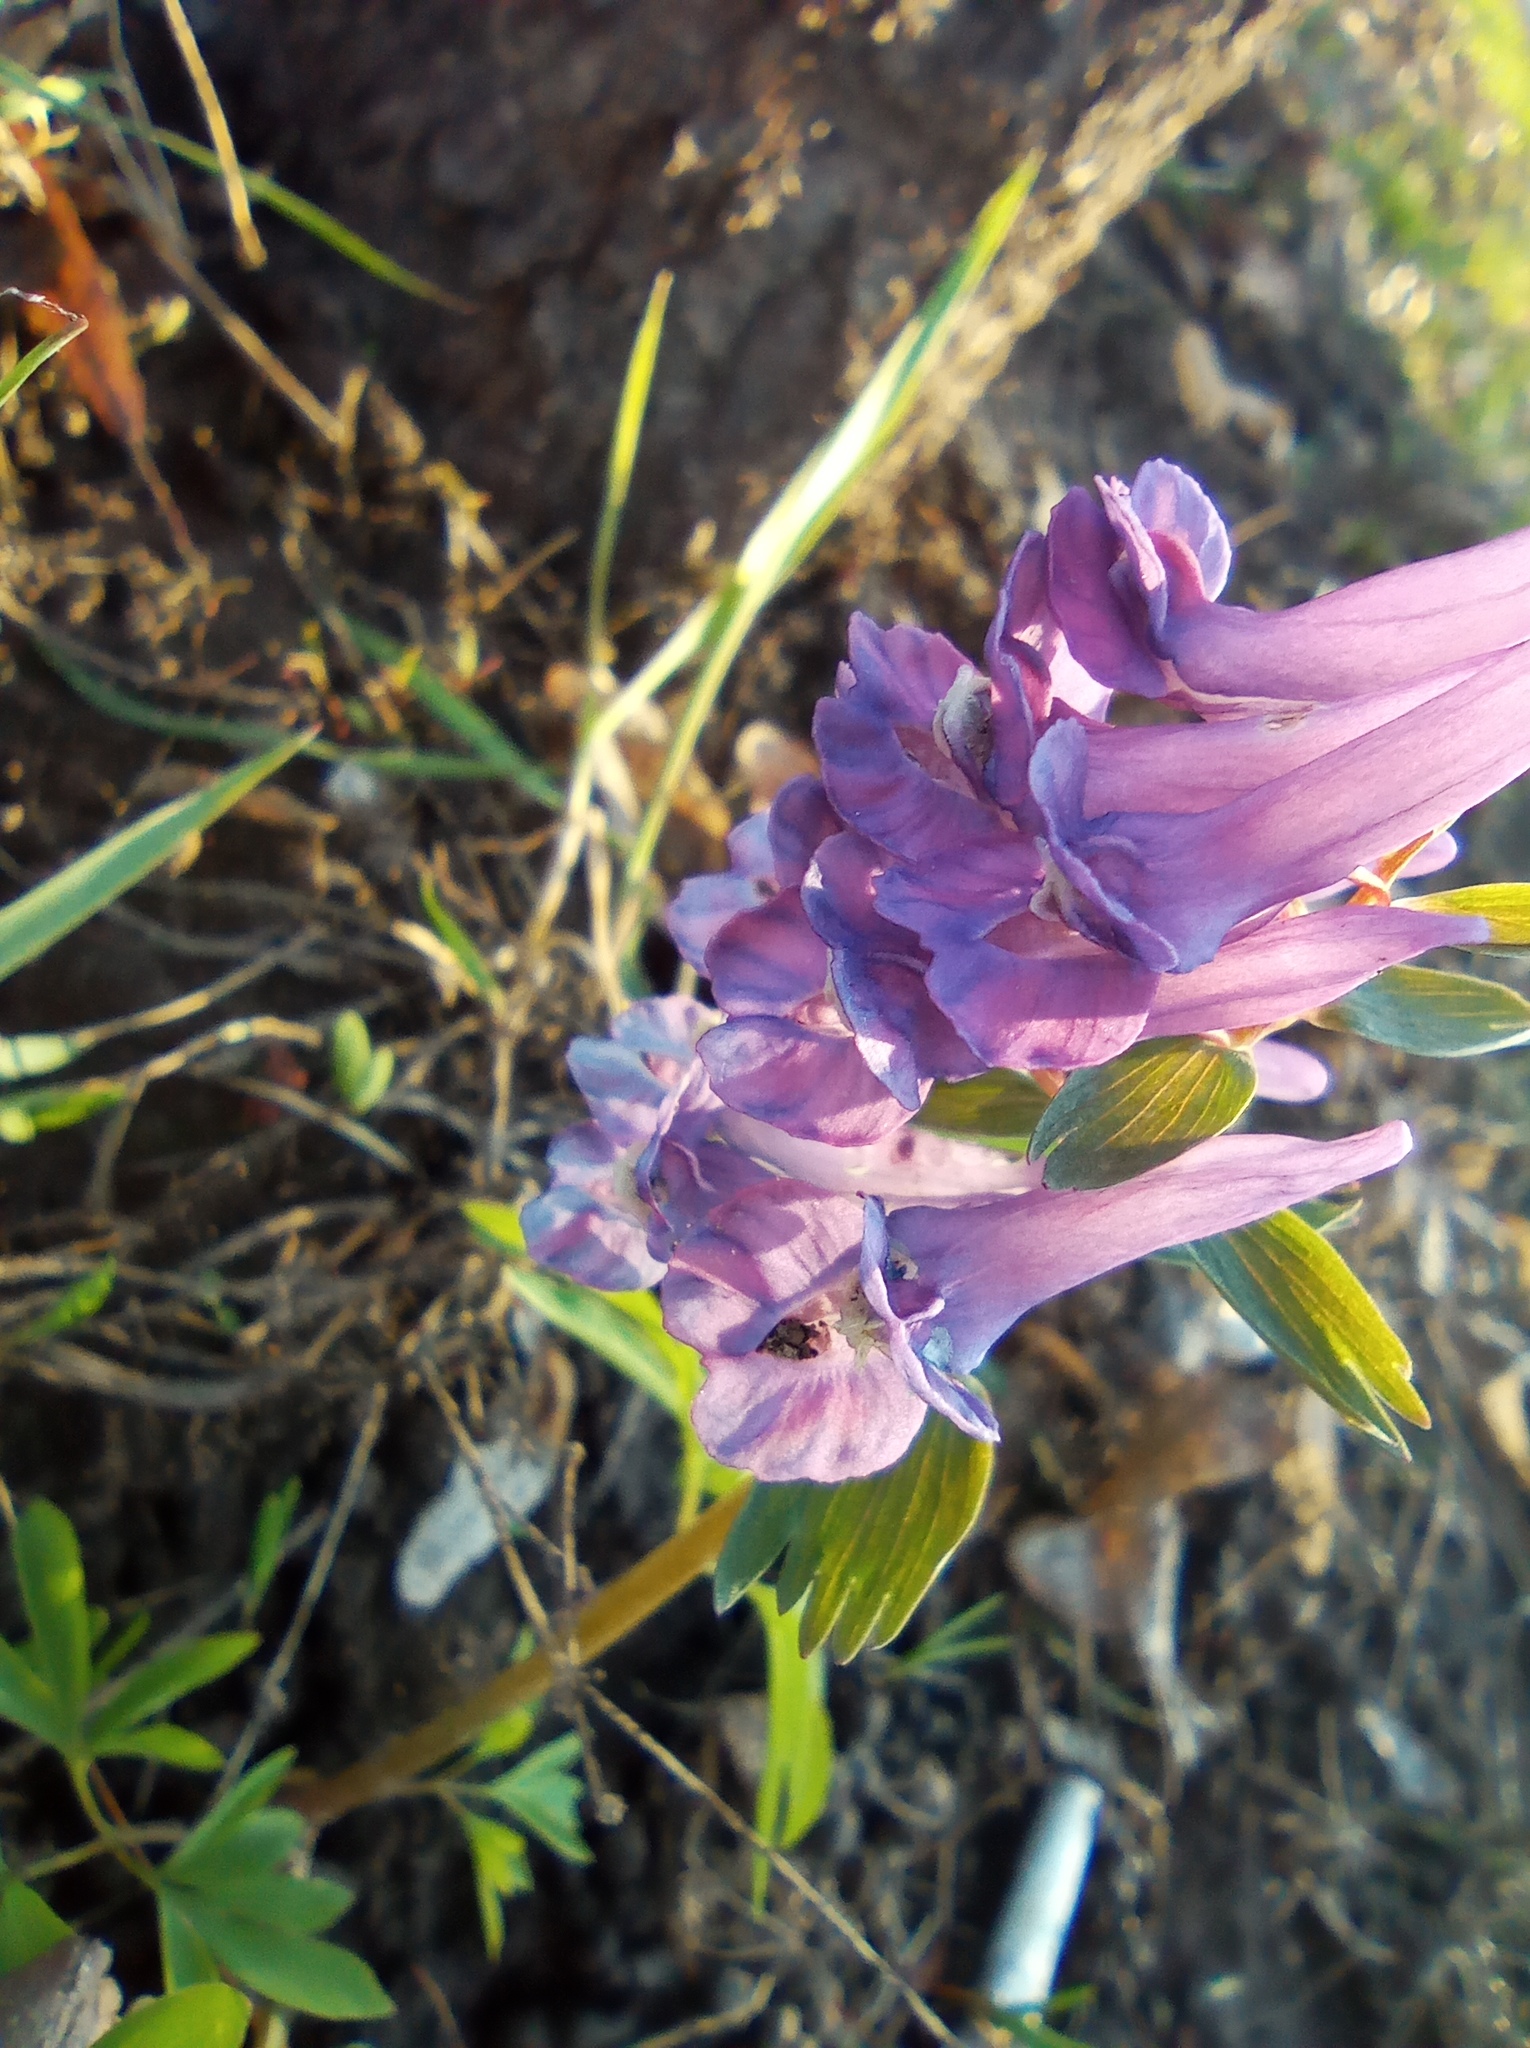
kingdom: Plantae
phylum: Tracheophyta
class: Magnoliopsida
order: Ranunculales
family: Papaveraceae
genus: Corydalis
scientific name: Corydalis solida
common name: Bird-in-a-bush
